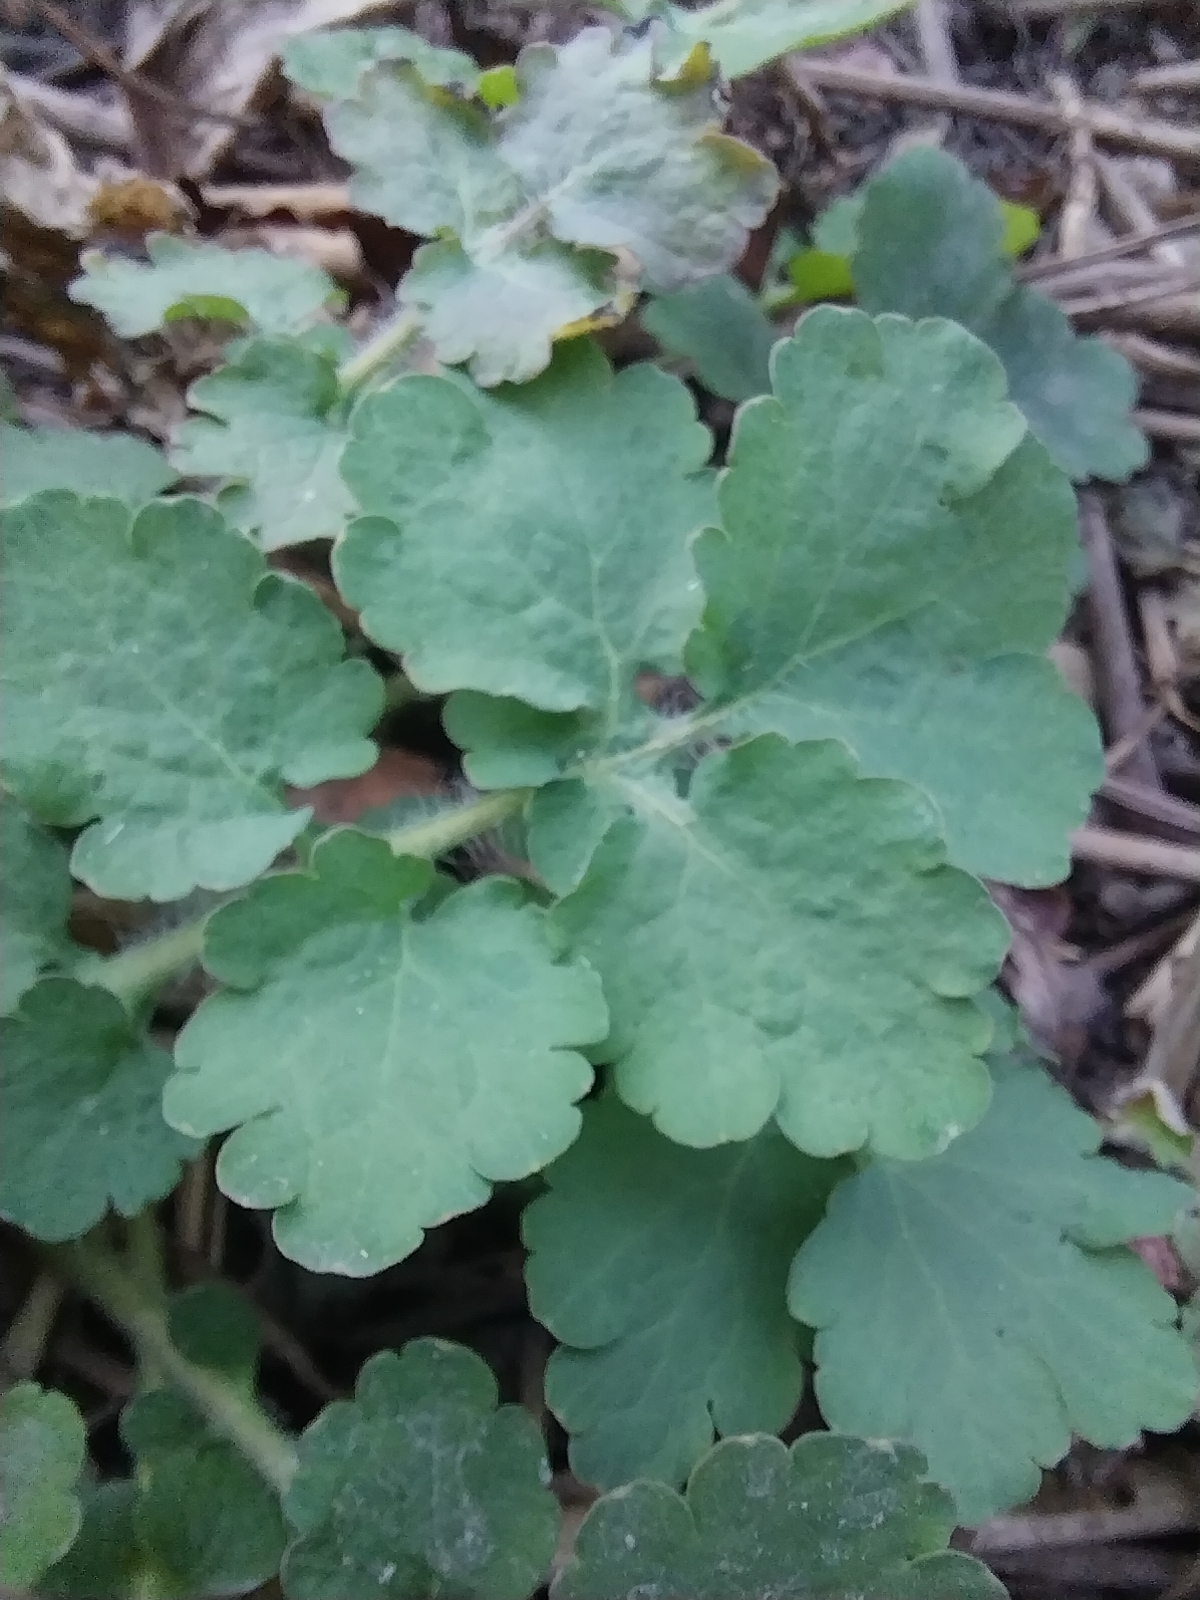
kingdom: Plantae
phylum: Tracheophyta
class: Magnoliopsida
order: Ranunculales
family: Papaveraceae
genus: Chelidonium
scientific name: Chelidonium majus
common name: Greater celandine
